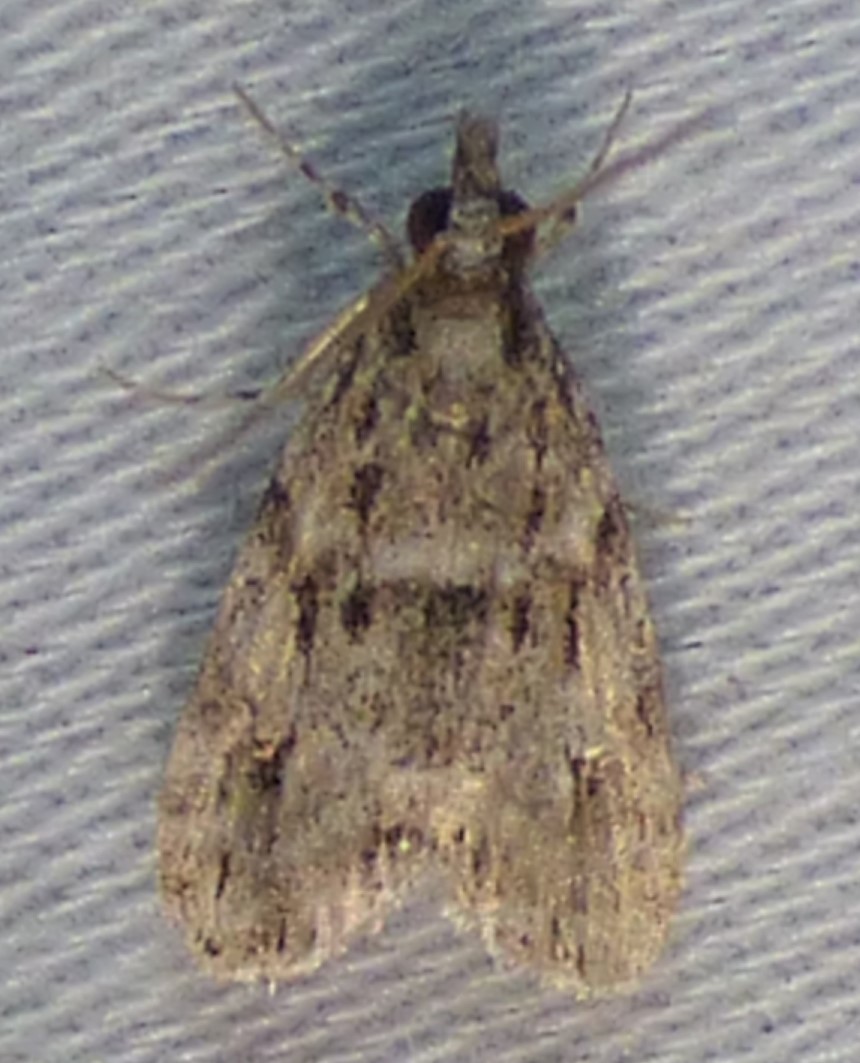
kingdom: Animalia
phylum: Arthropoda
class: Insecta
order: Lepidoptera
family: Crambidae
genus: Eudonia
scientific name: Eudonia heterosalis
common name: Mcdunnough's eudonia
